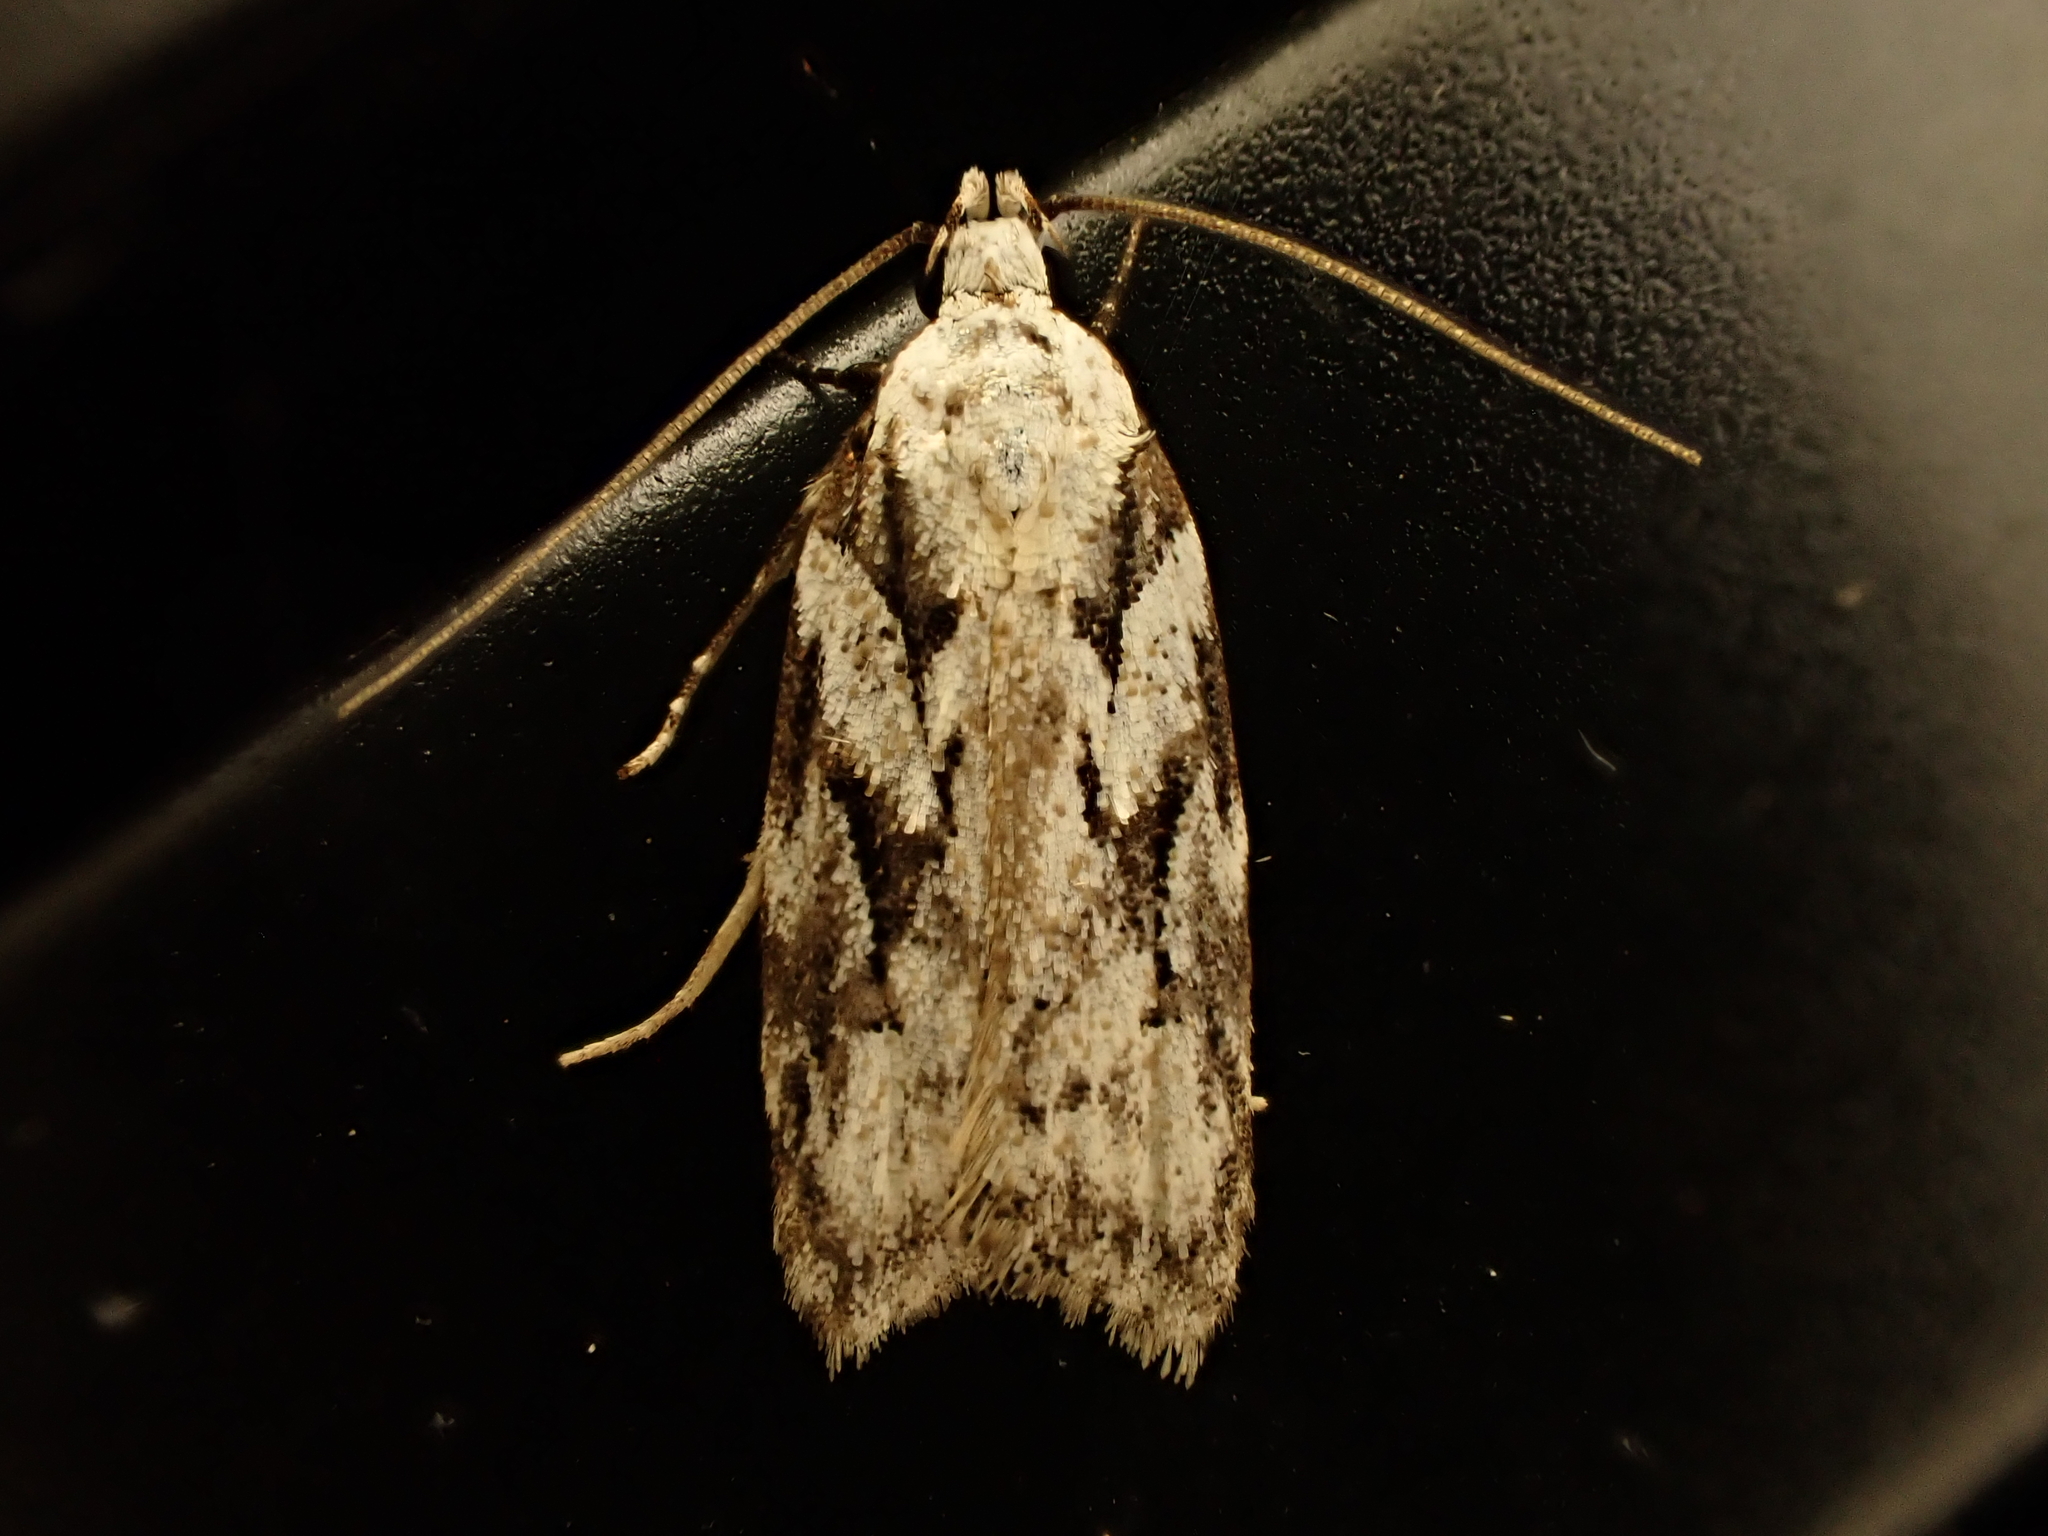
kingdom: Animalia
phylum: Arthropoda
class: Insecta
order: Lepidoptera
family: Oecophoridae
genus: Izatha
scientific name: Izatha mesoschista
